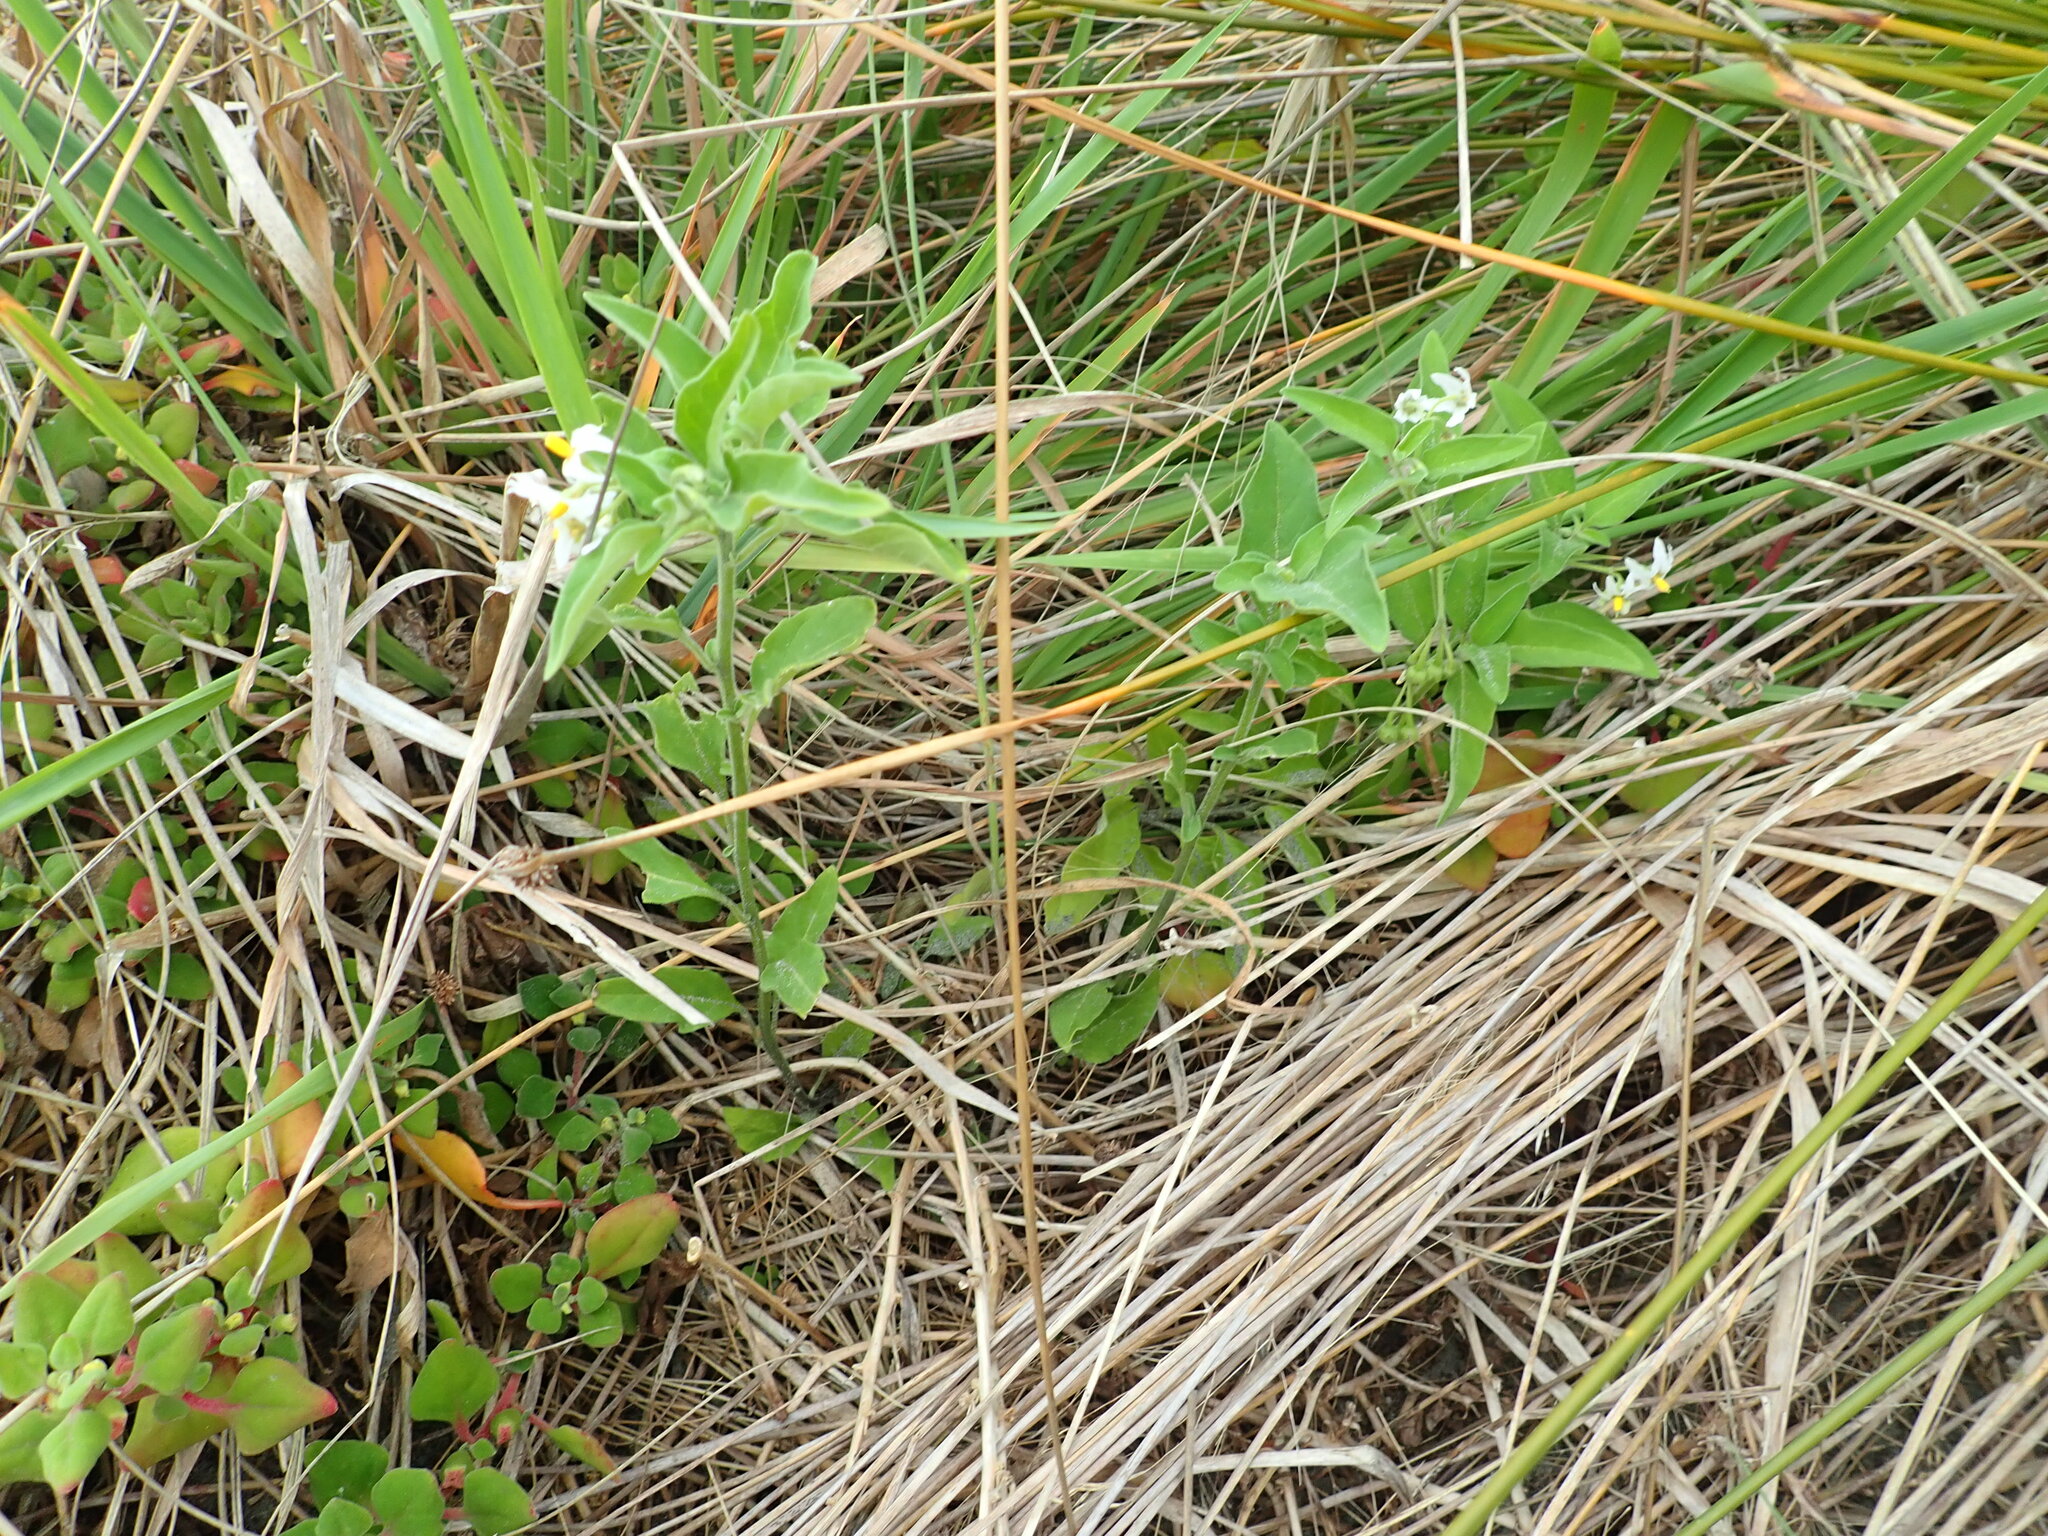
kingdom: Plantae
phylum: Tracheophyta
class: Magnoliopsida
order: Solanales
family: Solanaceae
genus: Solanum
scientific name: Solanum chenopodioides
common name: Tall nightshade
